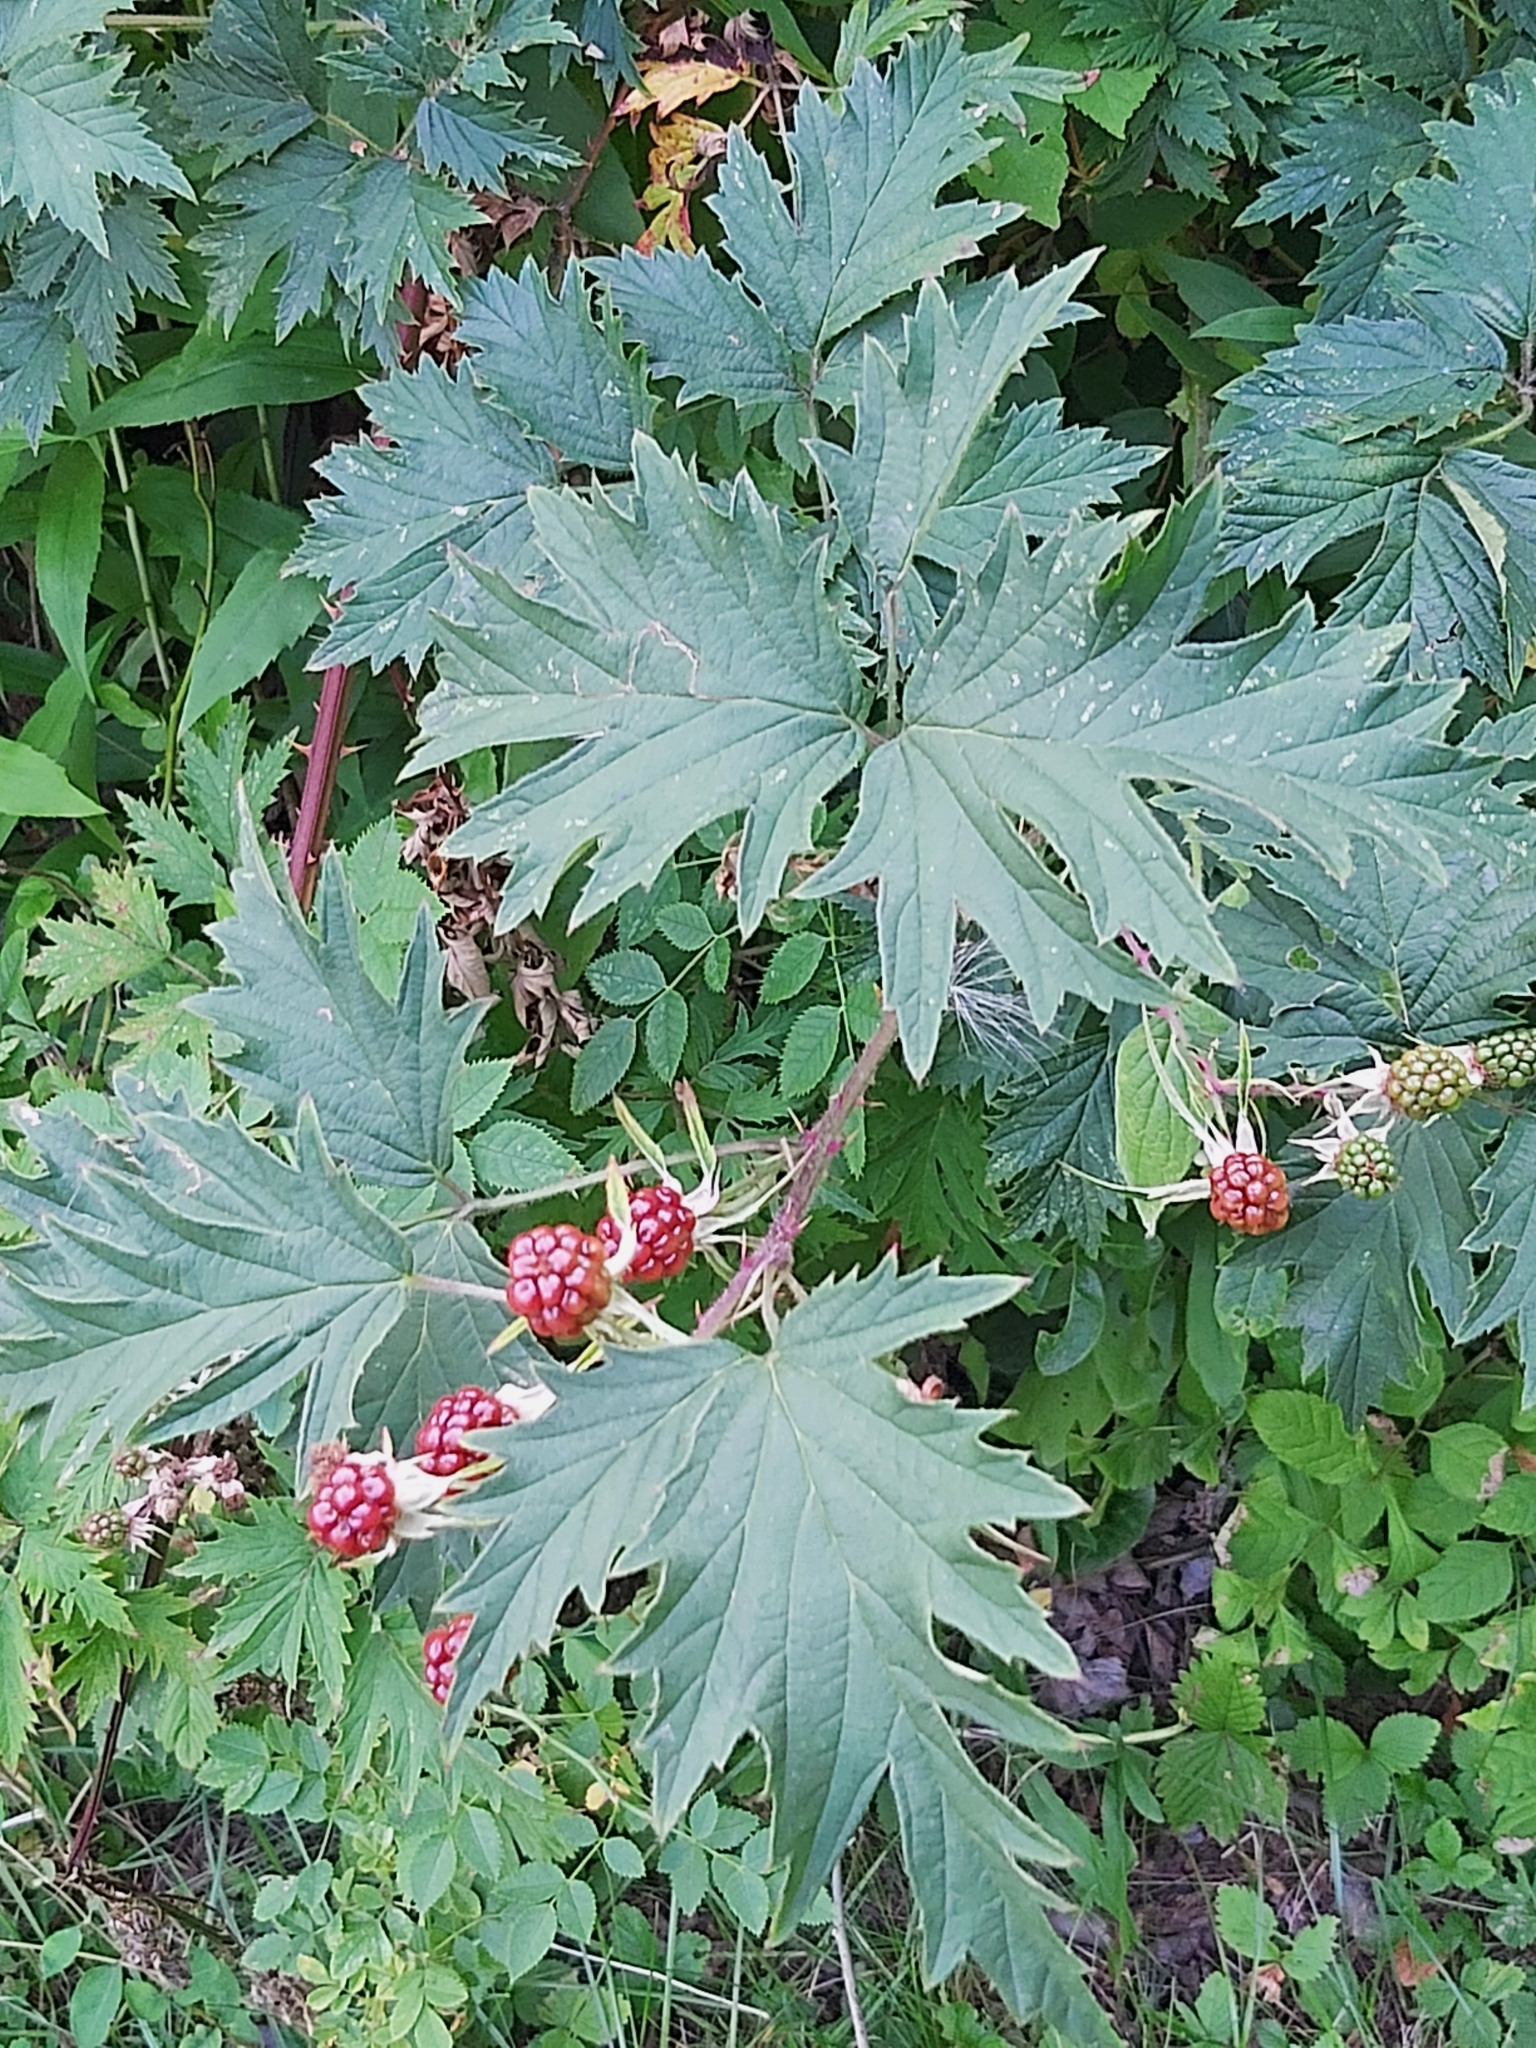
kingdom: Plantae
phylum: Tracheophyta
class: Magnoliopsida
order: Rosales
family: Rosaceae
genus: Rubus
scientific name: Rubus laciniatus
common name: Evergreen blackberry
